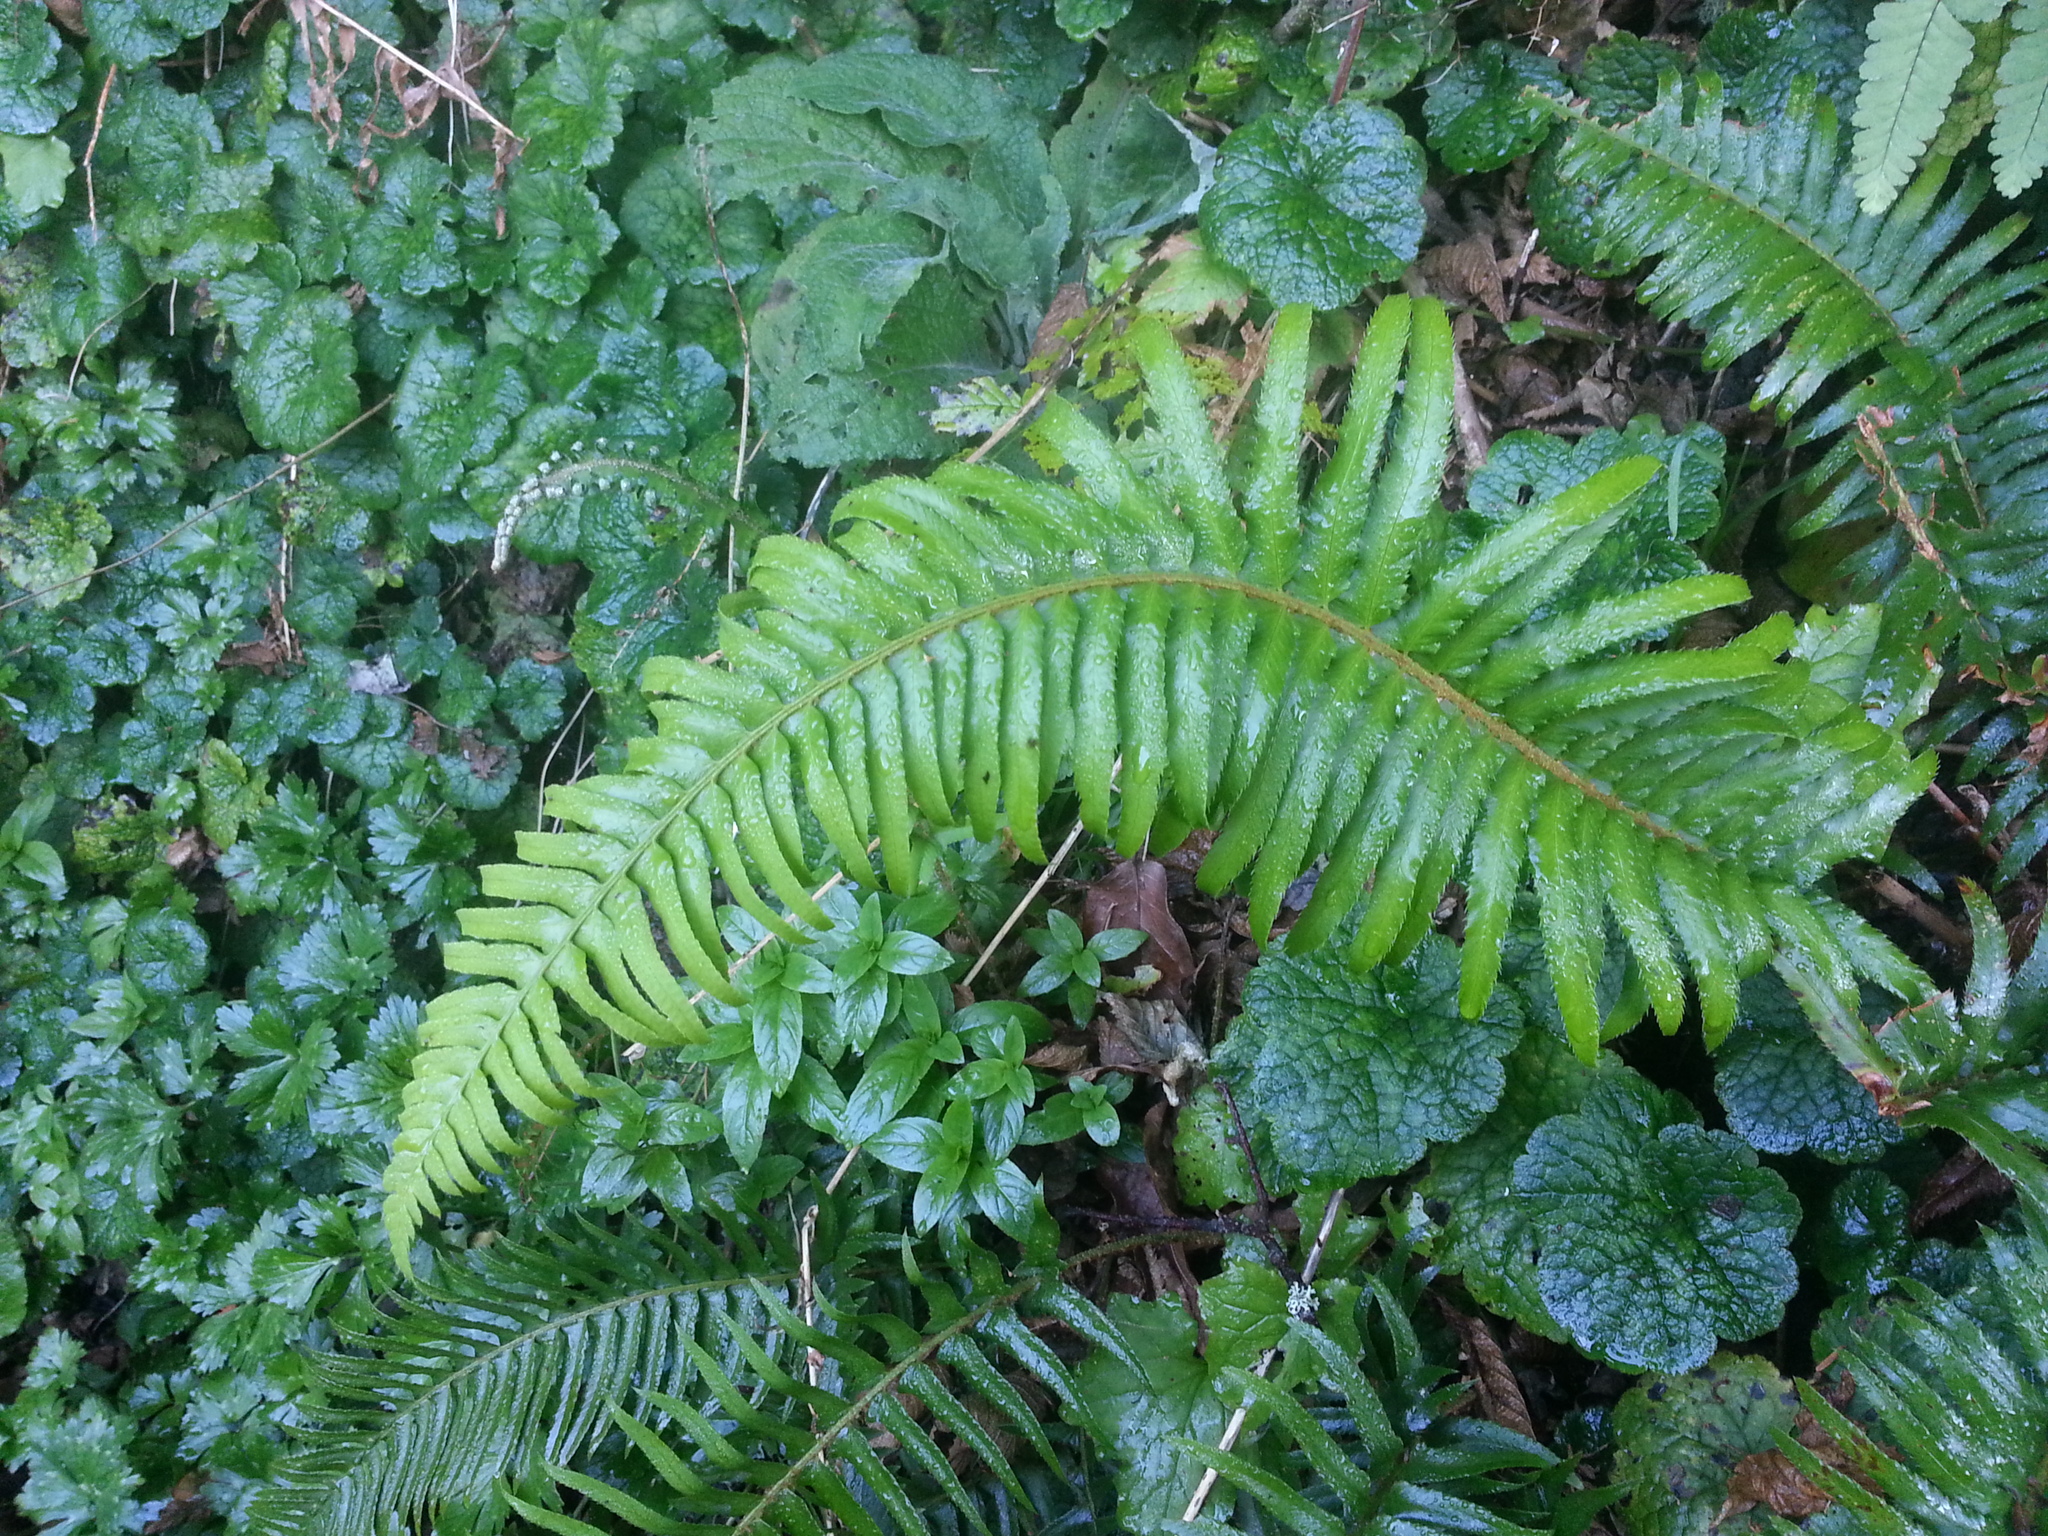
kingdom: Plantae
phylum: Tracheophyta
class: Polypodiopsida
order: Polypodiales
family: Dryopteridaceae
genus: Polystichum
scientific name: Polystichum munitum
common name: Western sword-fern
